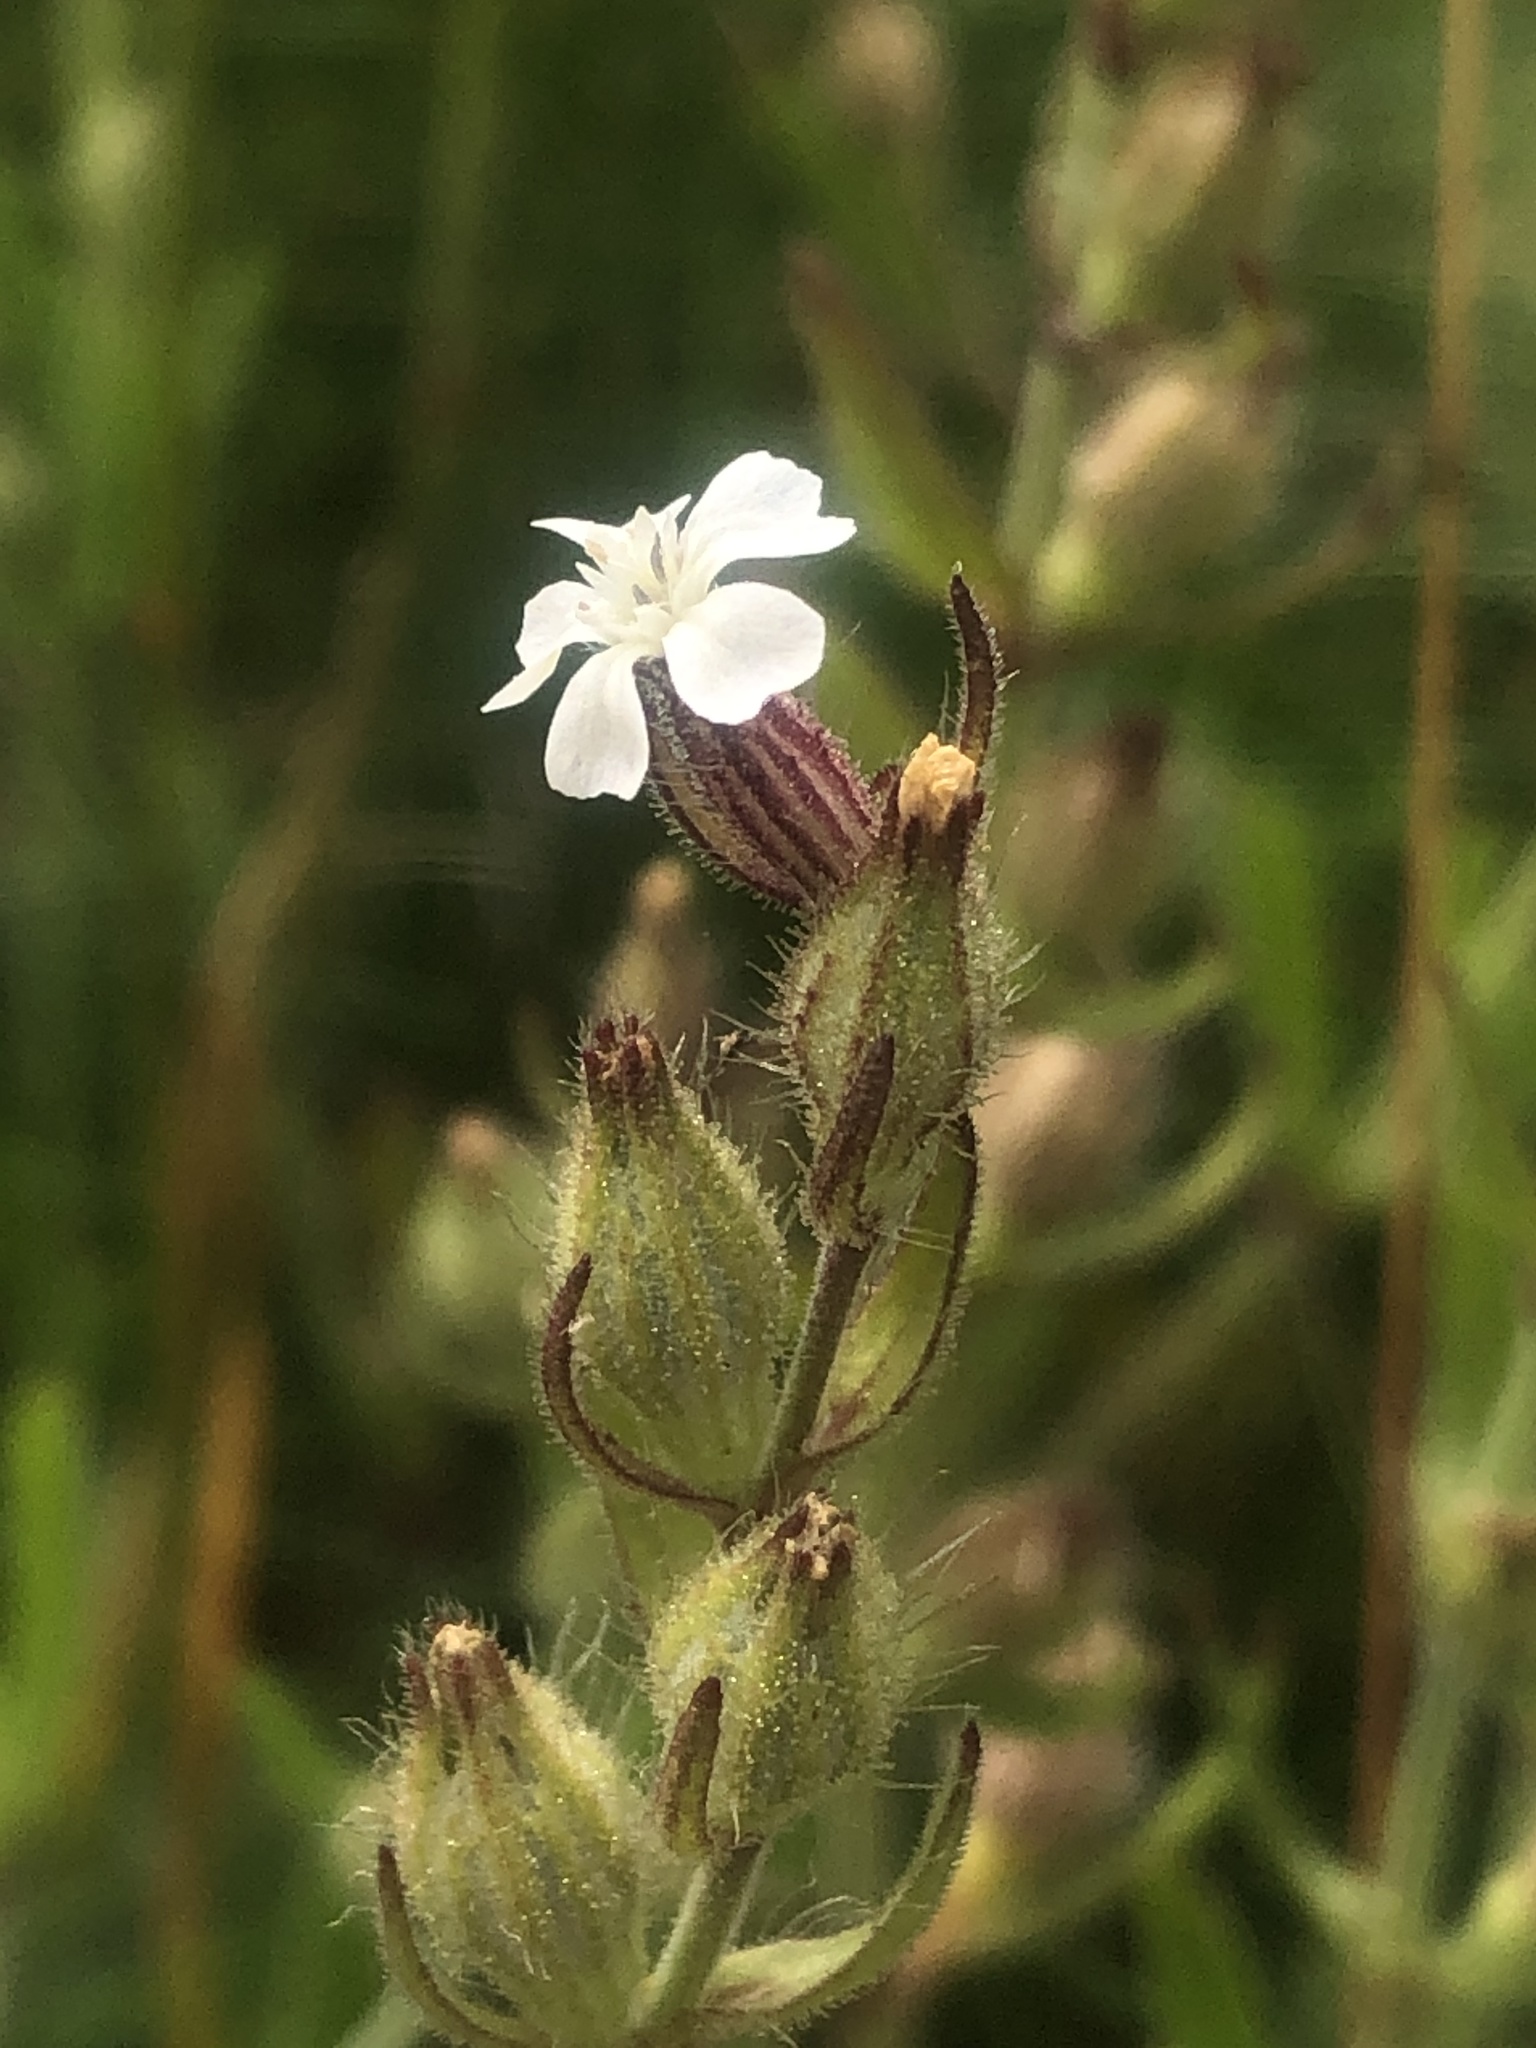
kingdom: Plantae
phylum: Tracheophyta
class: Magnoliopsida
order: Caryophyllales
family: Caryophyllaceae
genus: Silene
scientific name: Silene gallica
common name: Small-flowered catchfly
